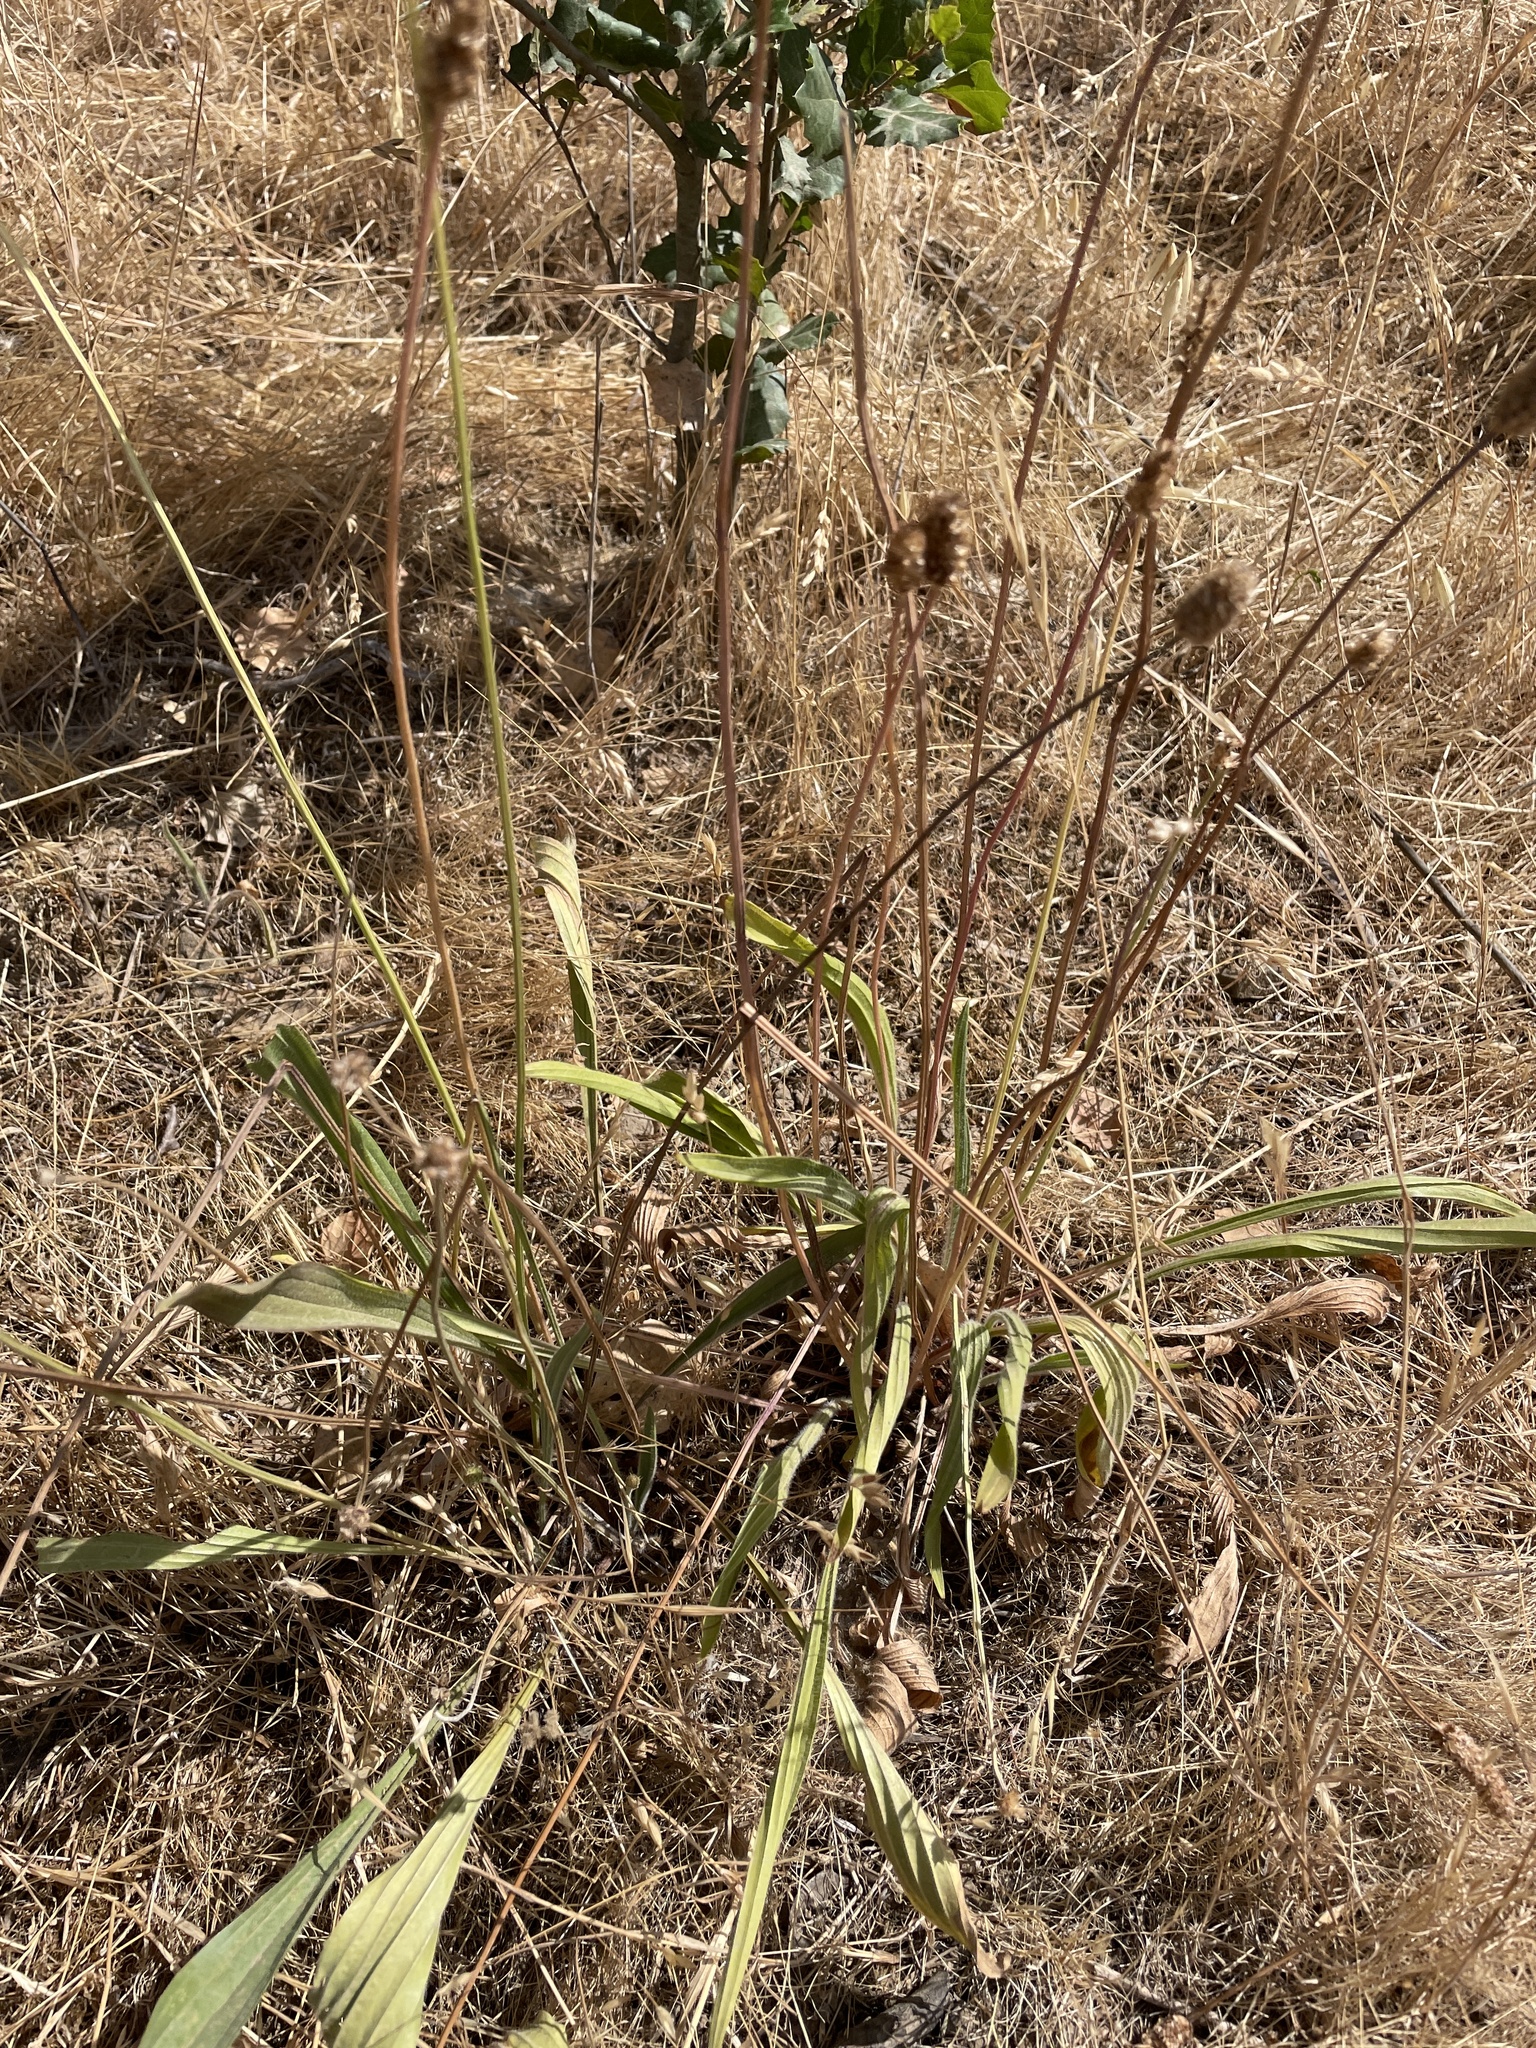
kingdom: Plantae
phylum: Tracheophyta
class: Magnoliopsida
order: Lamiales
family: Plantaginaceae
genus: Plantago
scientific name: Plantago lanceolata
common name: Ribwort plantain
